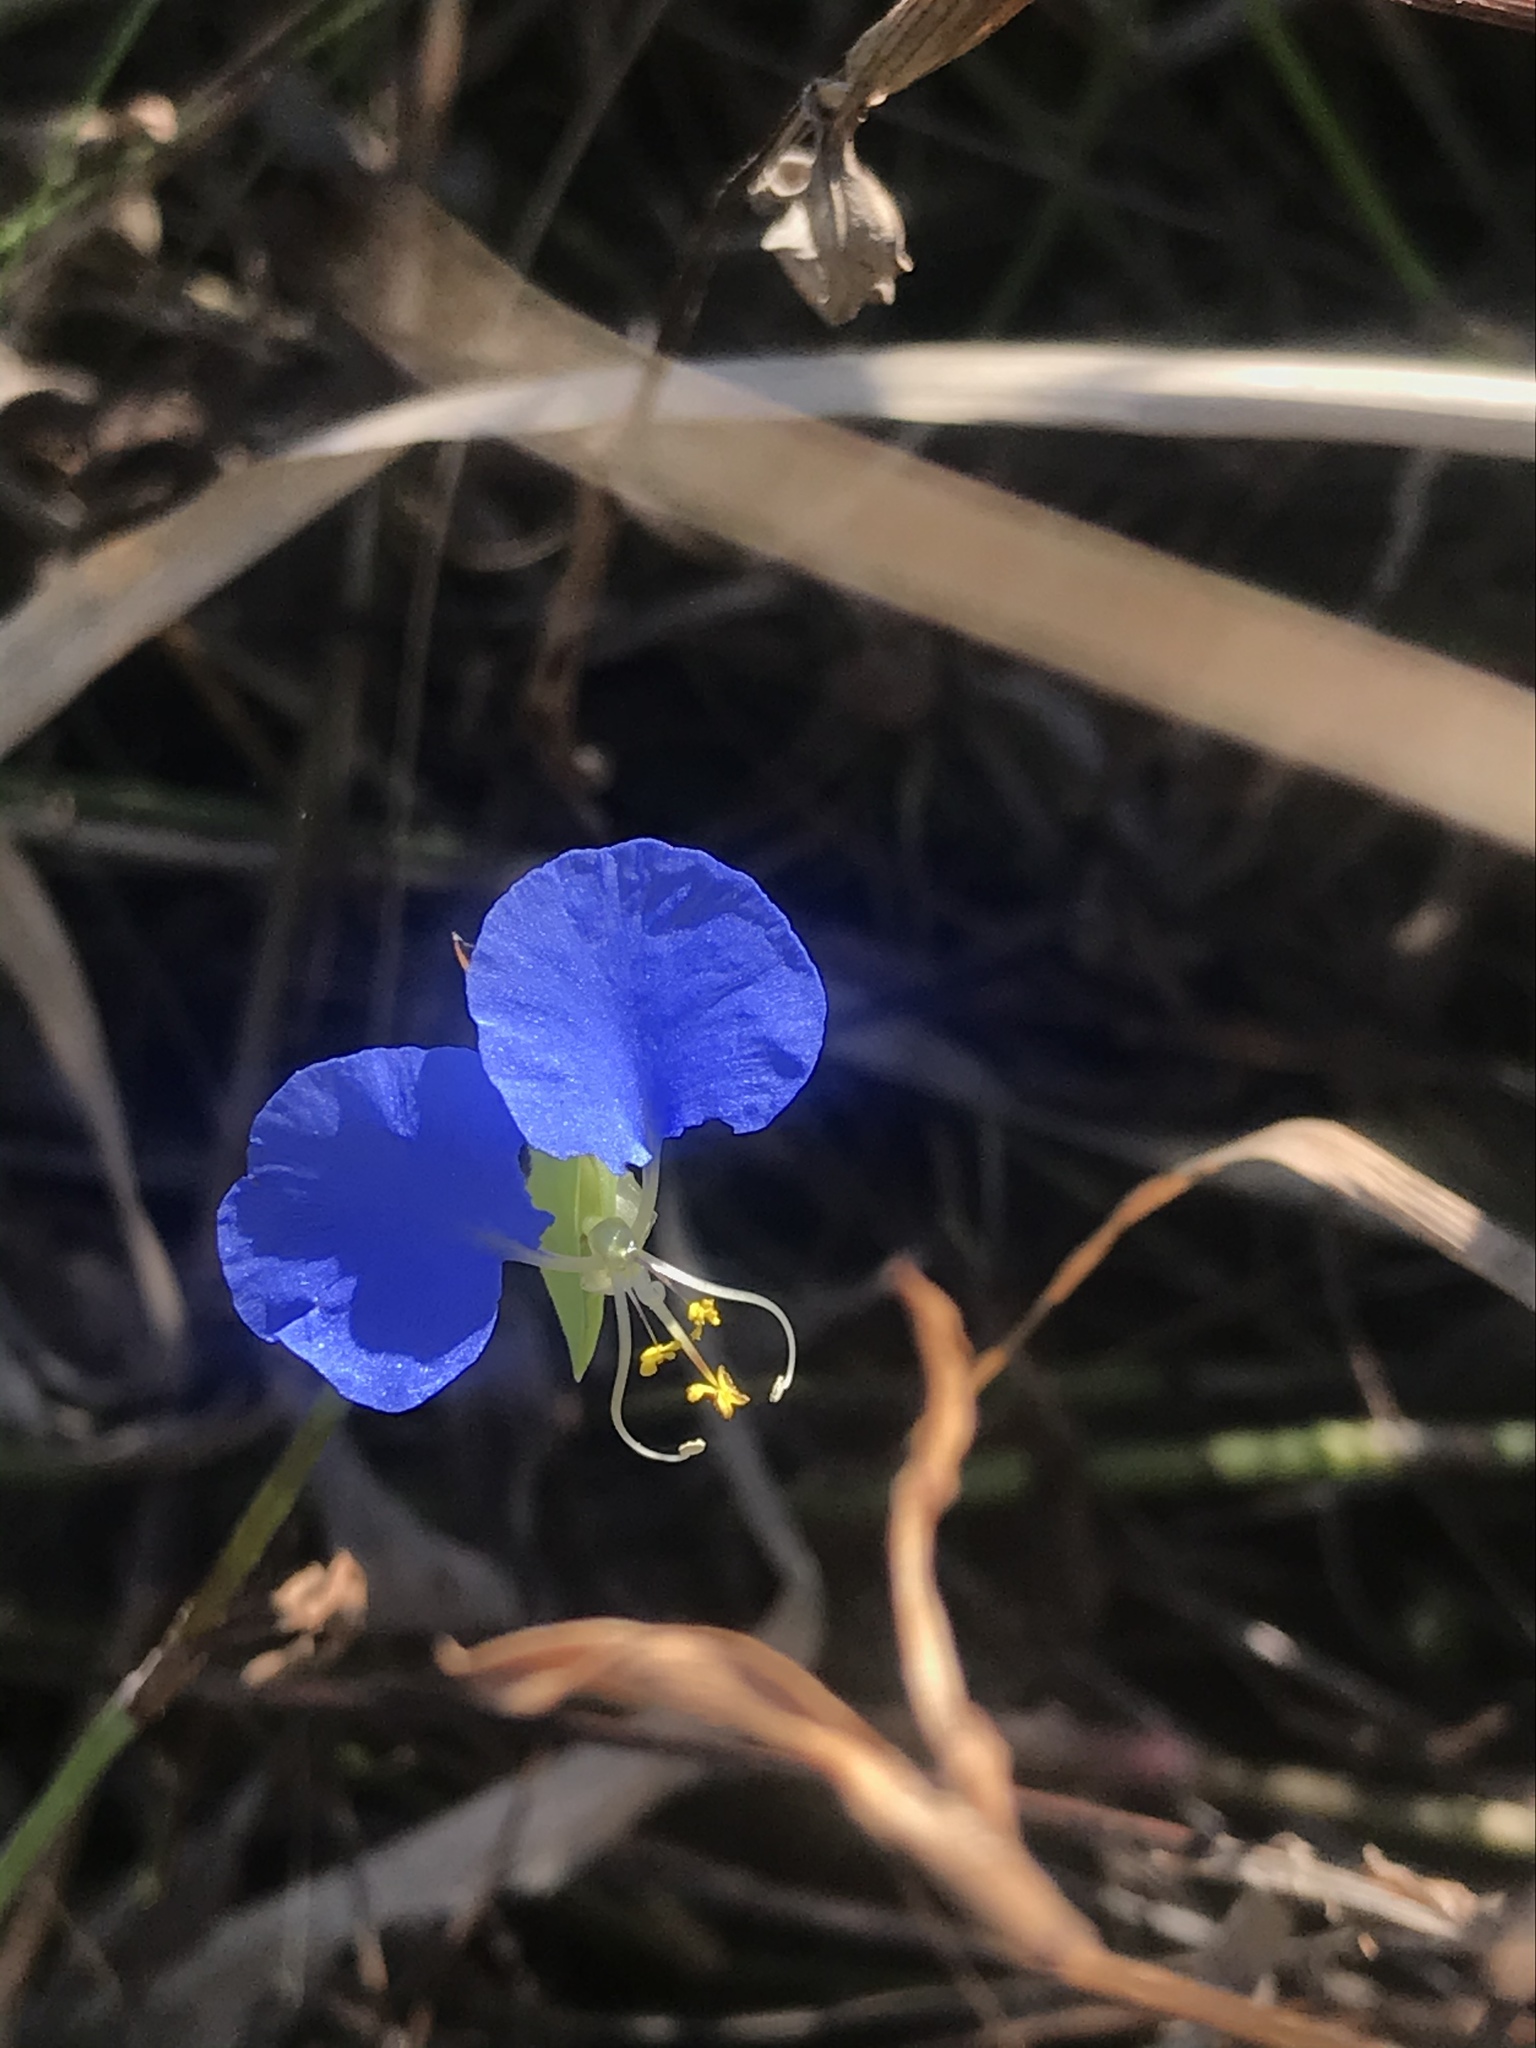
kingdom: Plantae
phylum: Tracheophyta
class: Liliopsida
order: Commelinales
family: Commelinaceae
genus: Commelina
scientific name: Commelina erecta
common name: Blousel blommetjie
